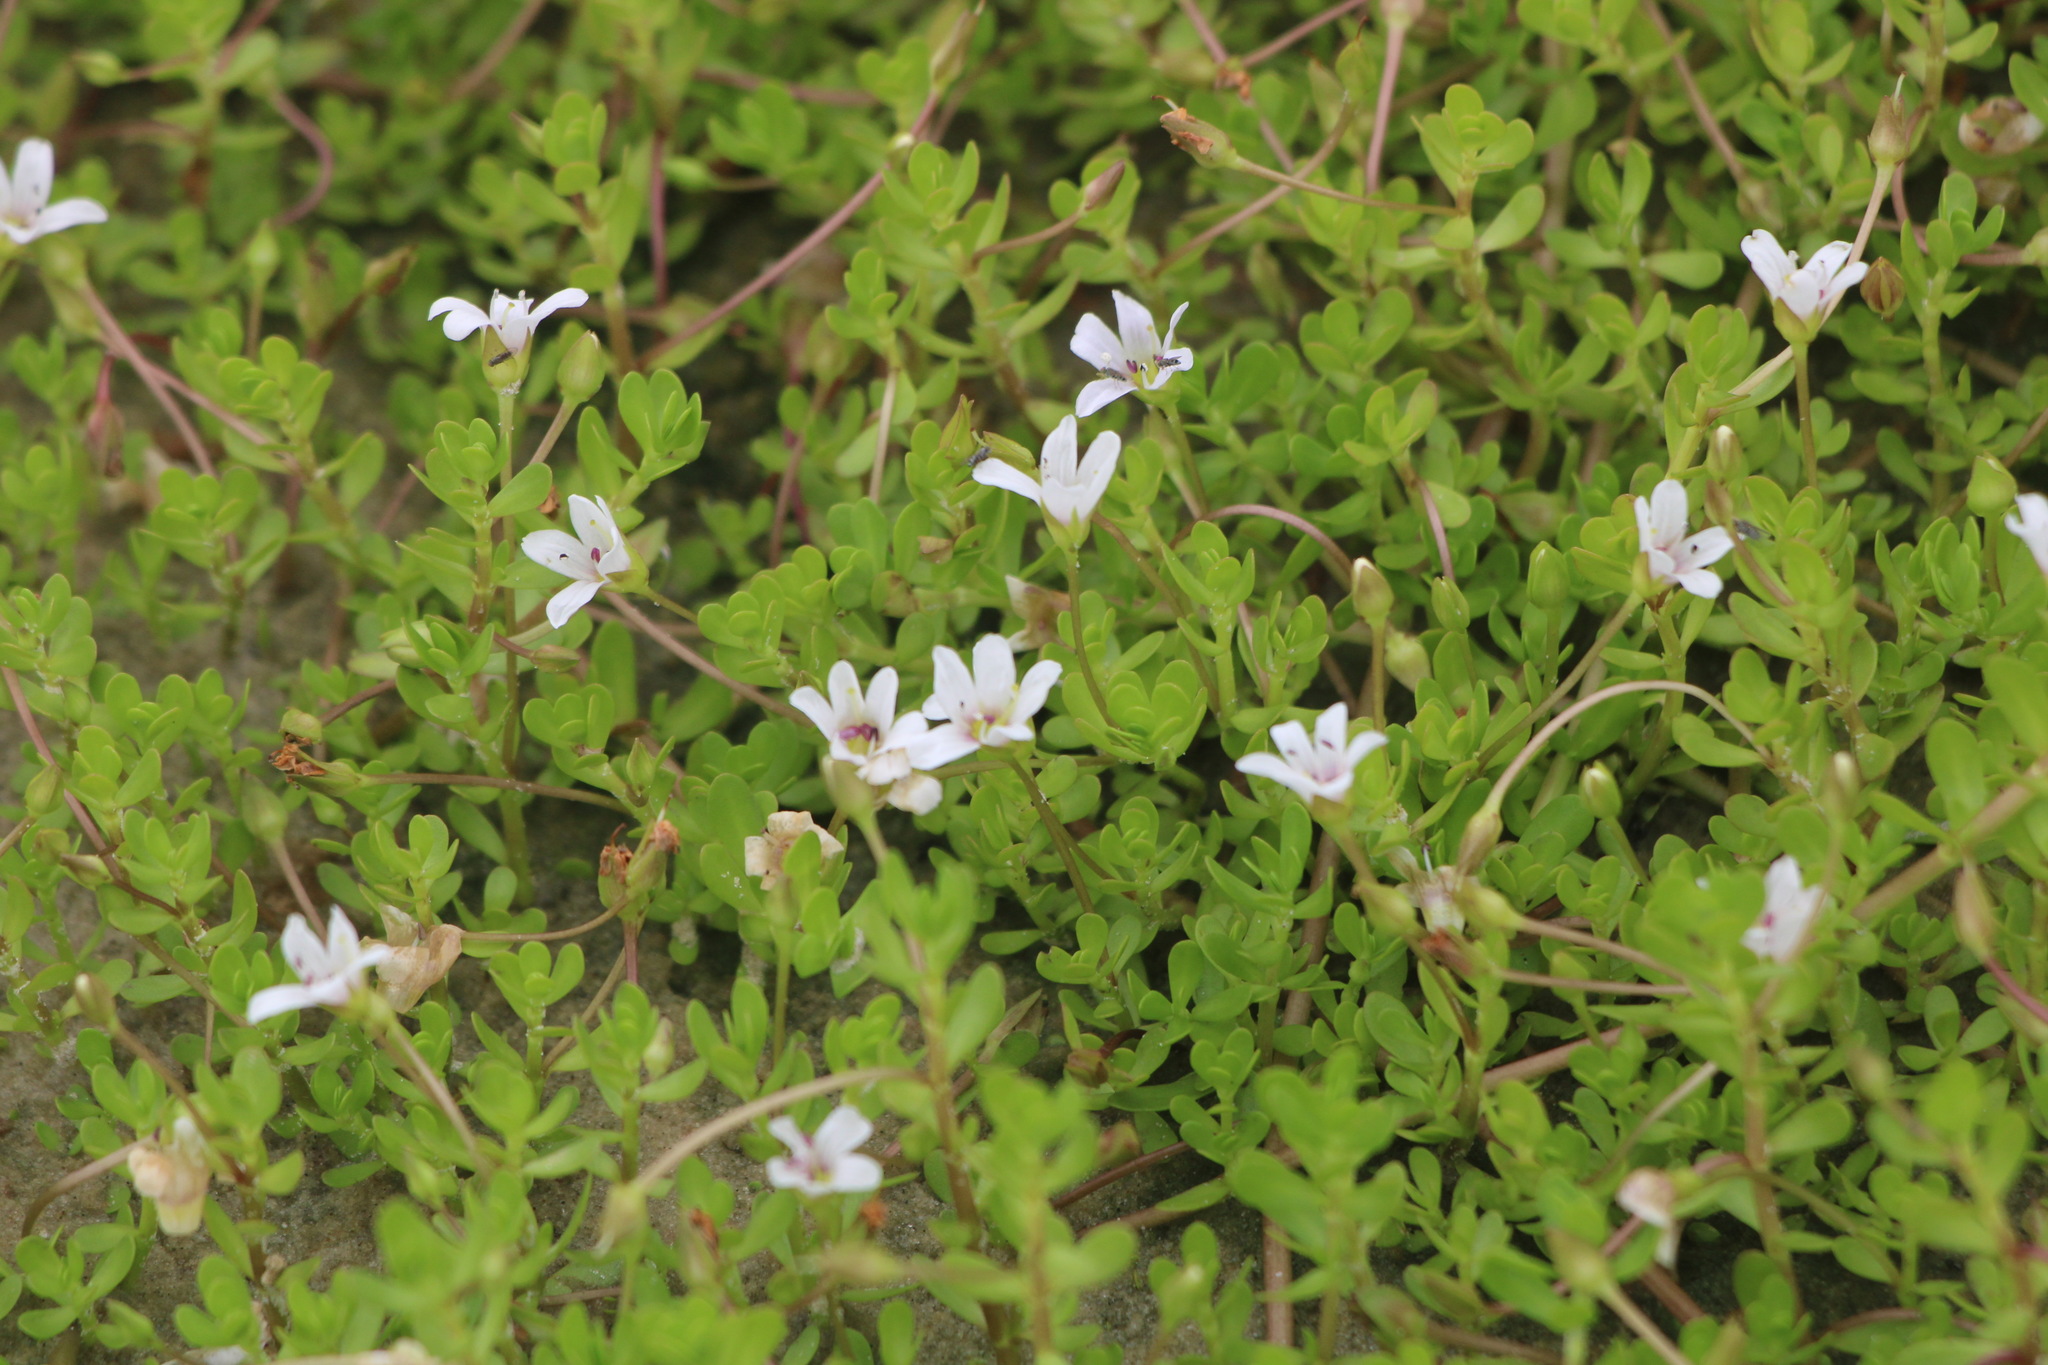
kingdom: Plantae
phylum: Tracheophyta
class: Magnoliopsida
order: Lamiales
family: Plantaginaceae
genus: Bacopa
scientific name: Bacopa monnieri
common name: Indian-pennywort
